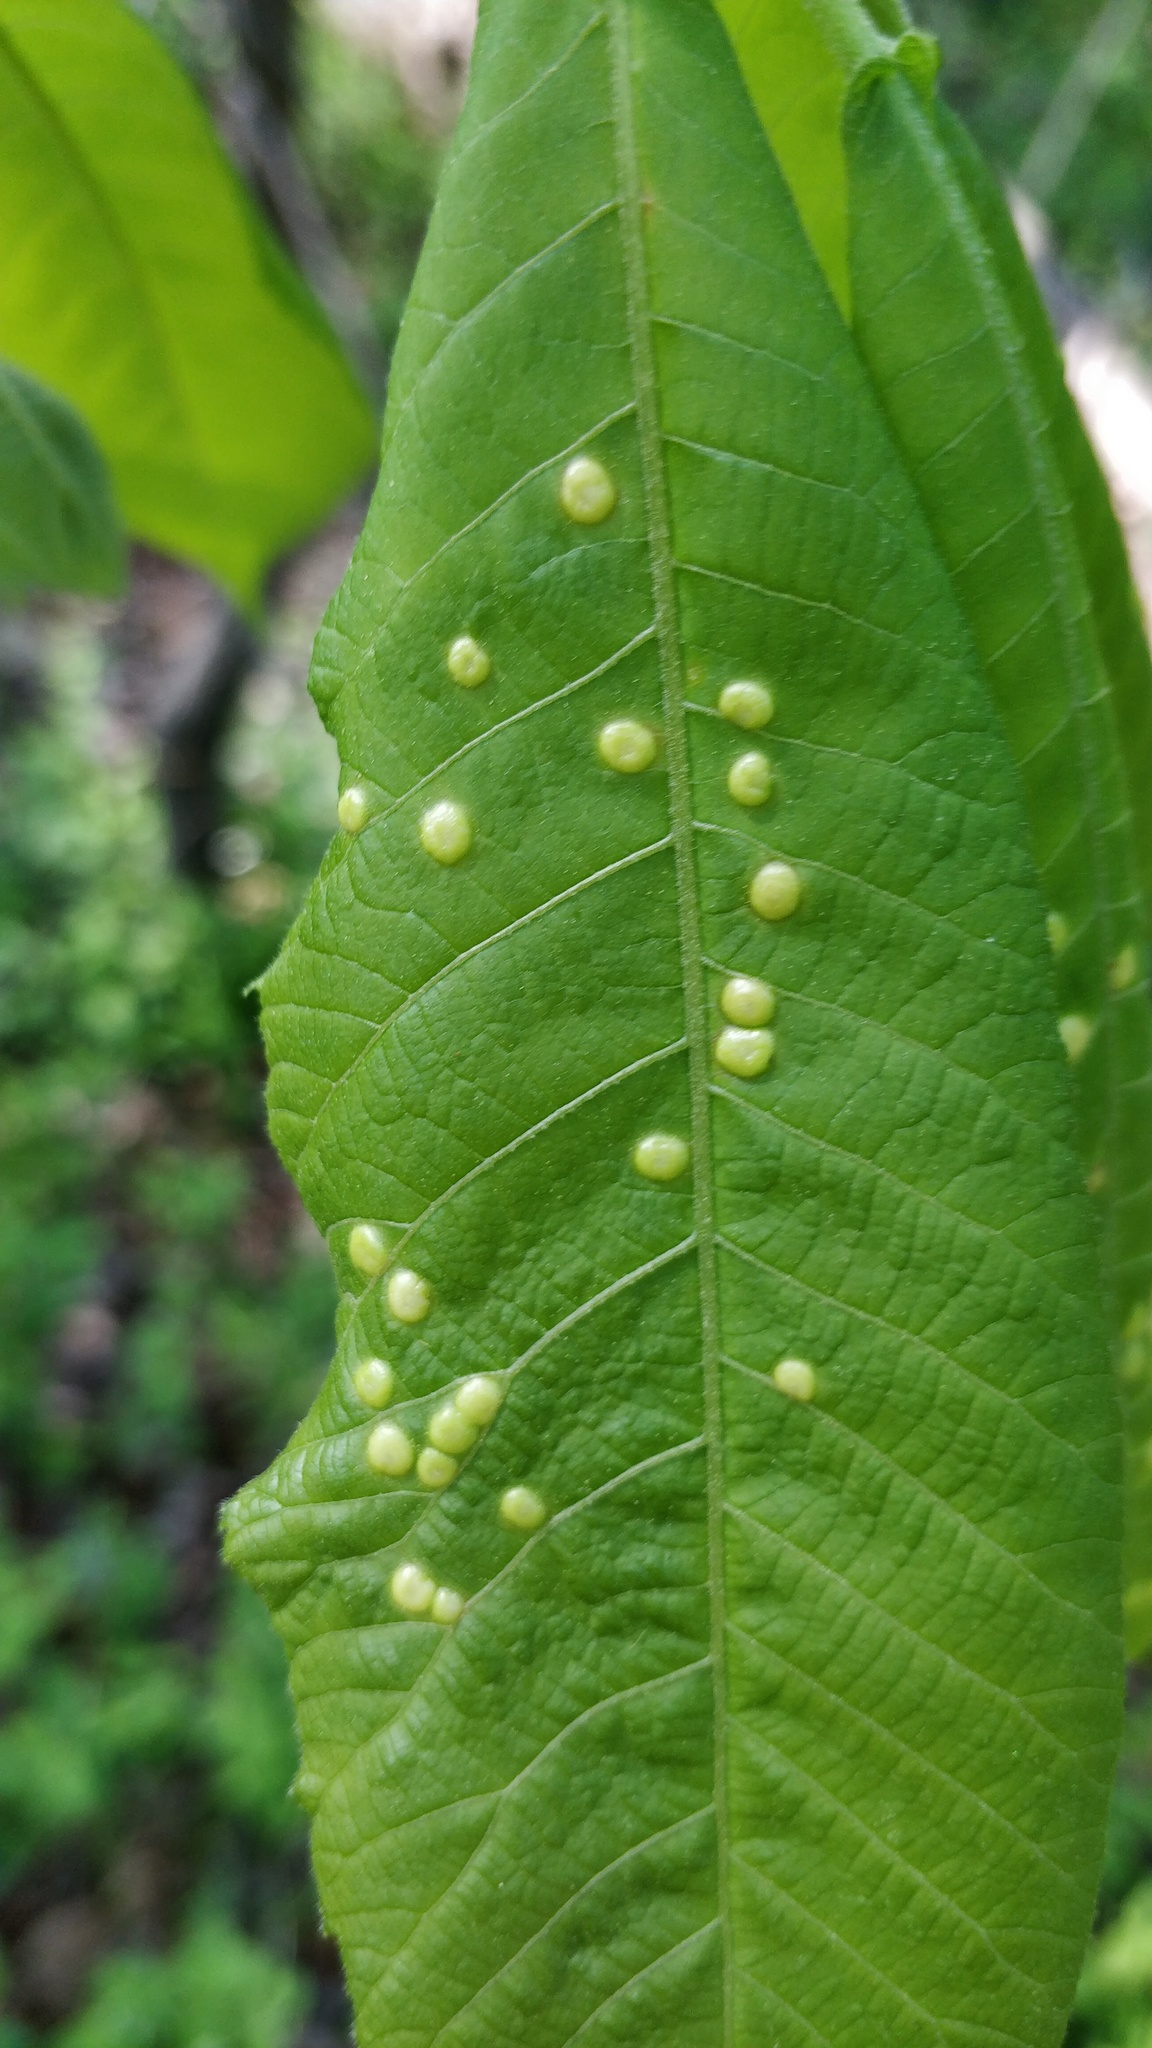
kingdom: Animalia
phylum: Arthropoda
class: Insecta
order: Hemiptera
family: Phylloxeridae
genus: Phylloxera
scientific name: Phylloxera
